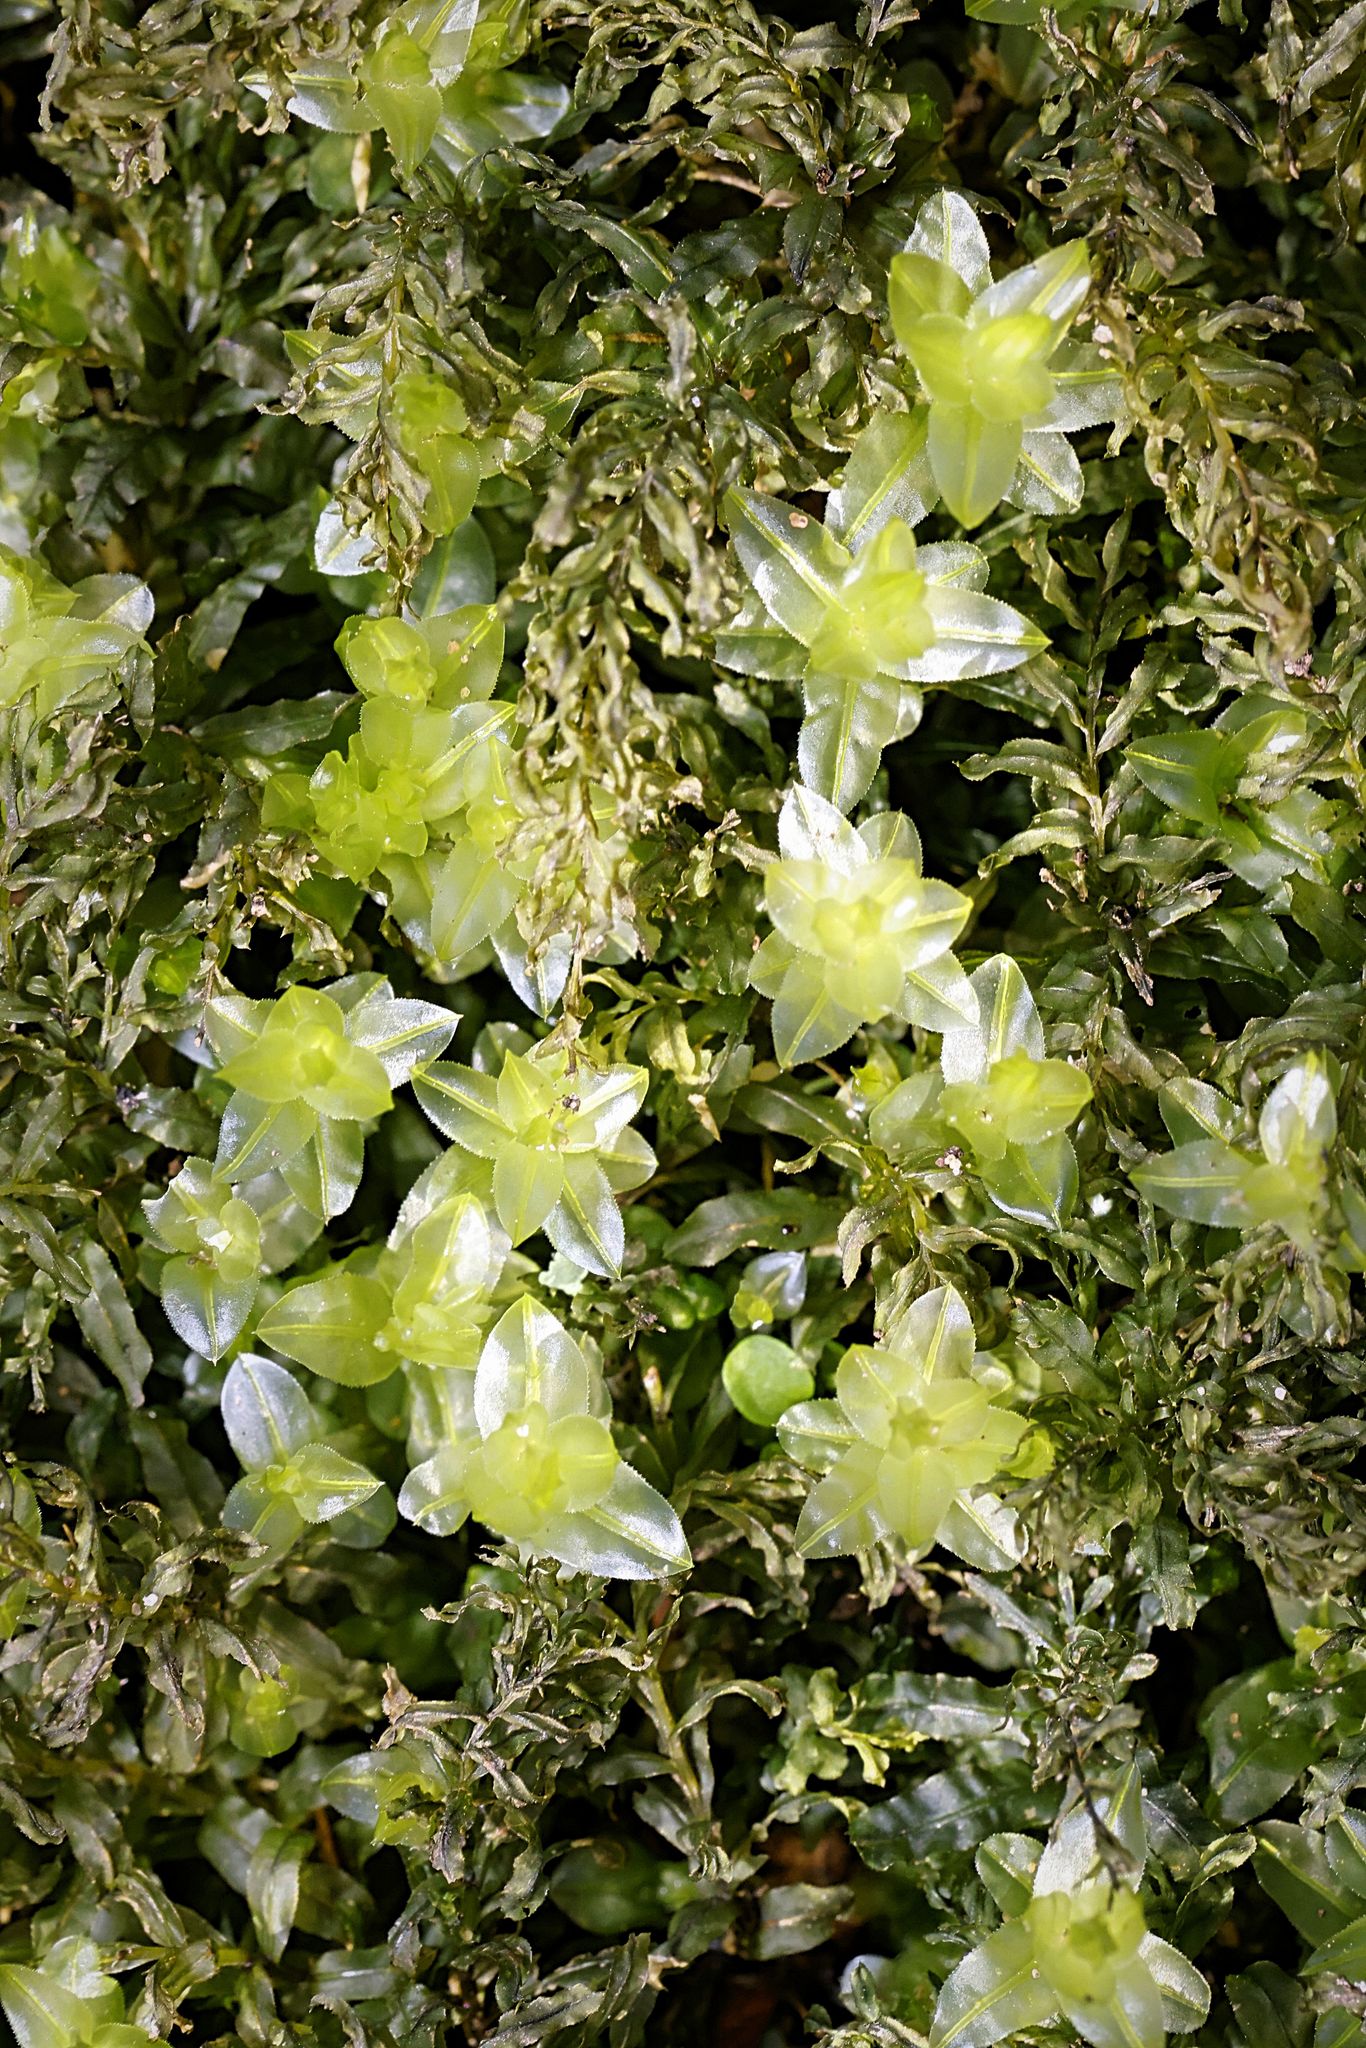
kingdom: Plantae
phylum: Bryophyta
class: Bryopsida
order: Bryales
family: Mniaceae
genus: Plagiomnium
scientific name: Plagiomnium undulatum
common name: Hart's-tongue thyme-moss
